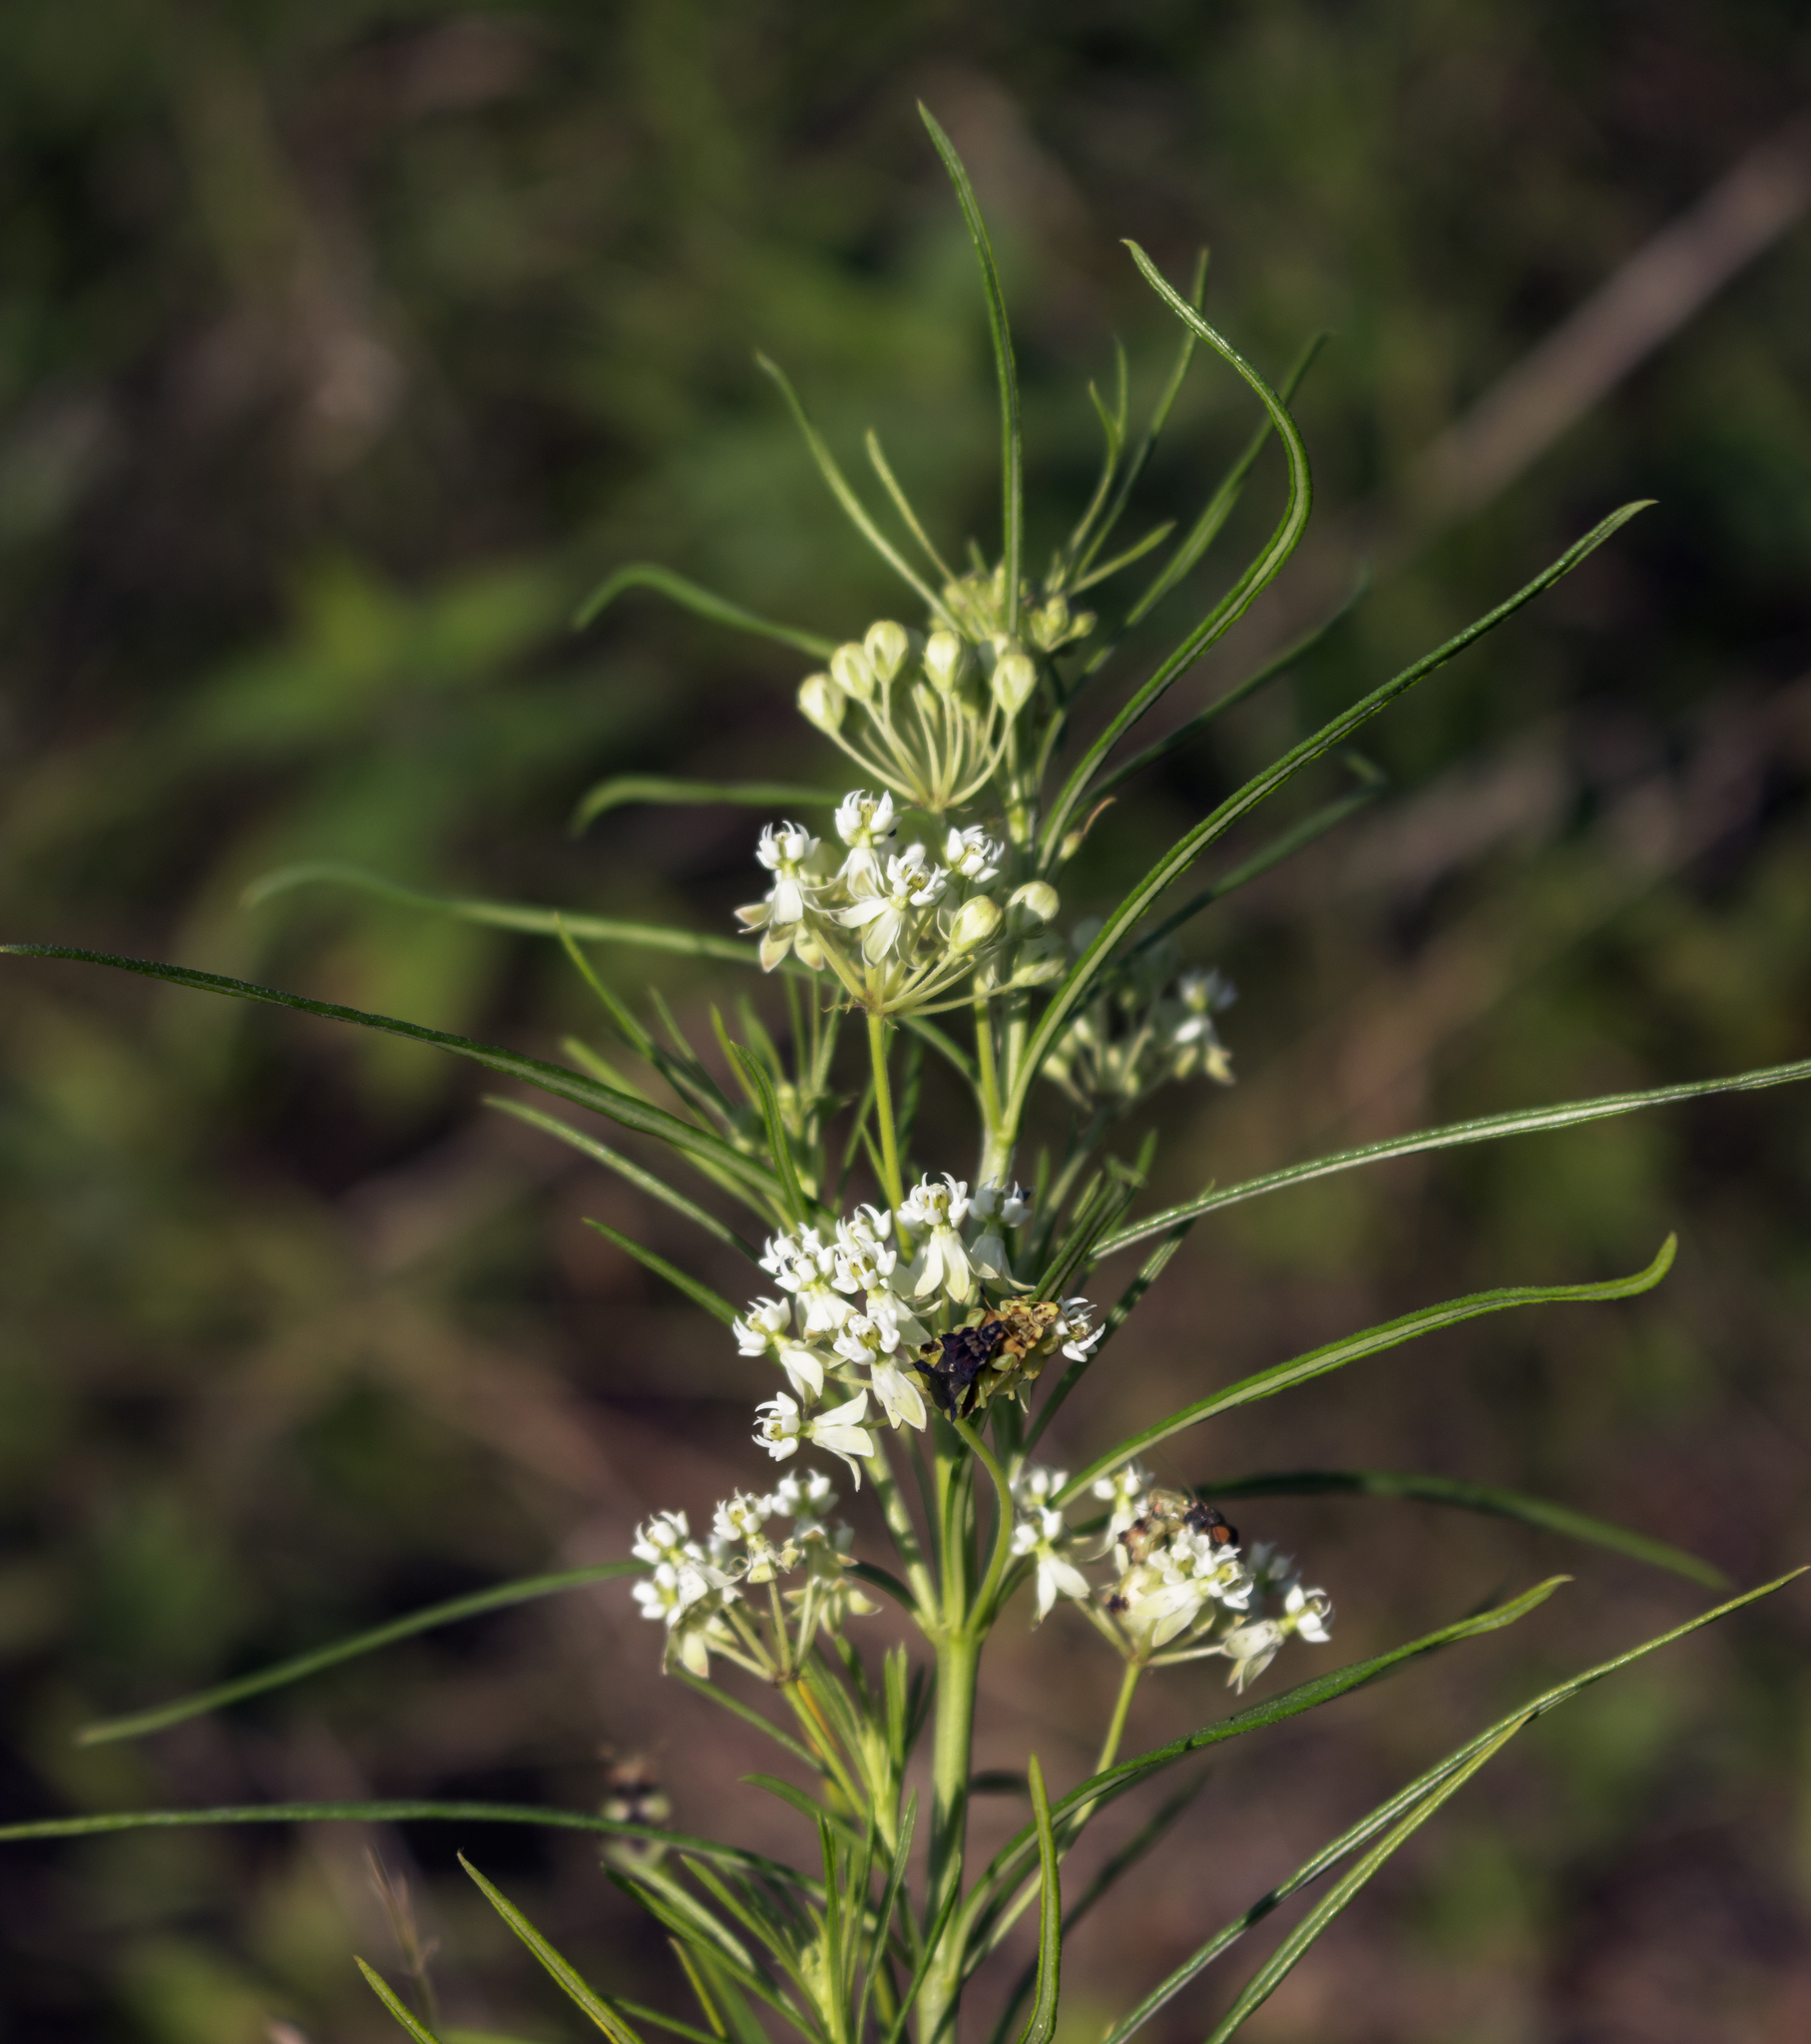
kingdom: Plantae
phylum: Tracheophyta
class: Magnoliopsida
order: Gentianales
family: Apocynaceae
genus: Asclepias
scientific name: Asclepias verticillata
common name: Eastern whorled milkweed
